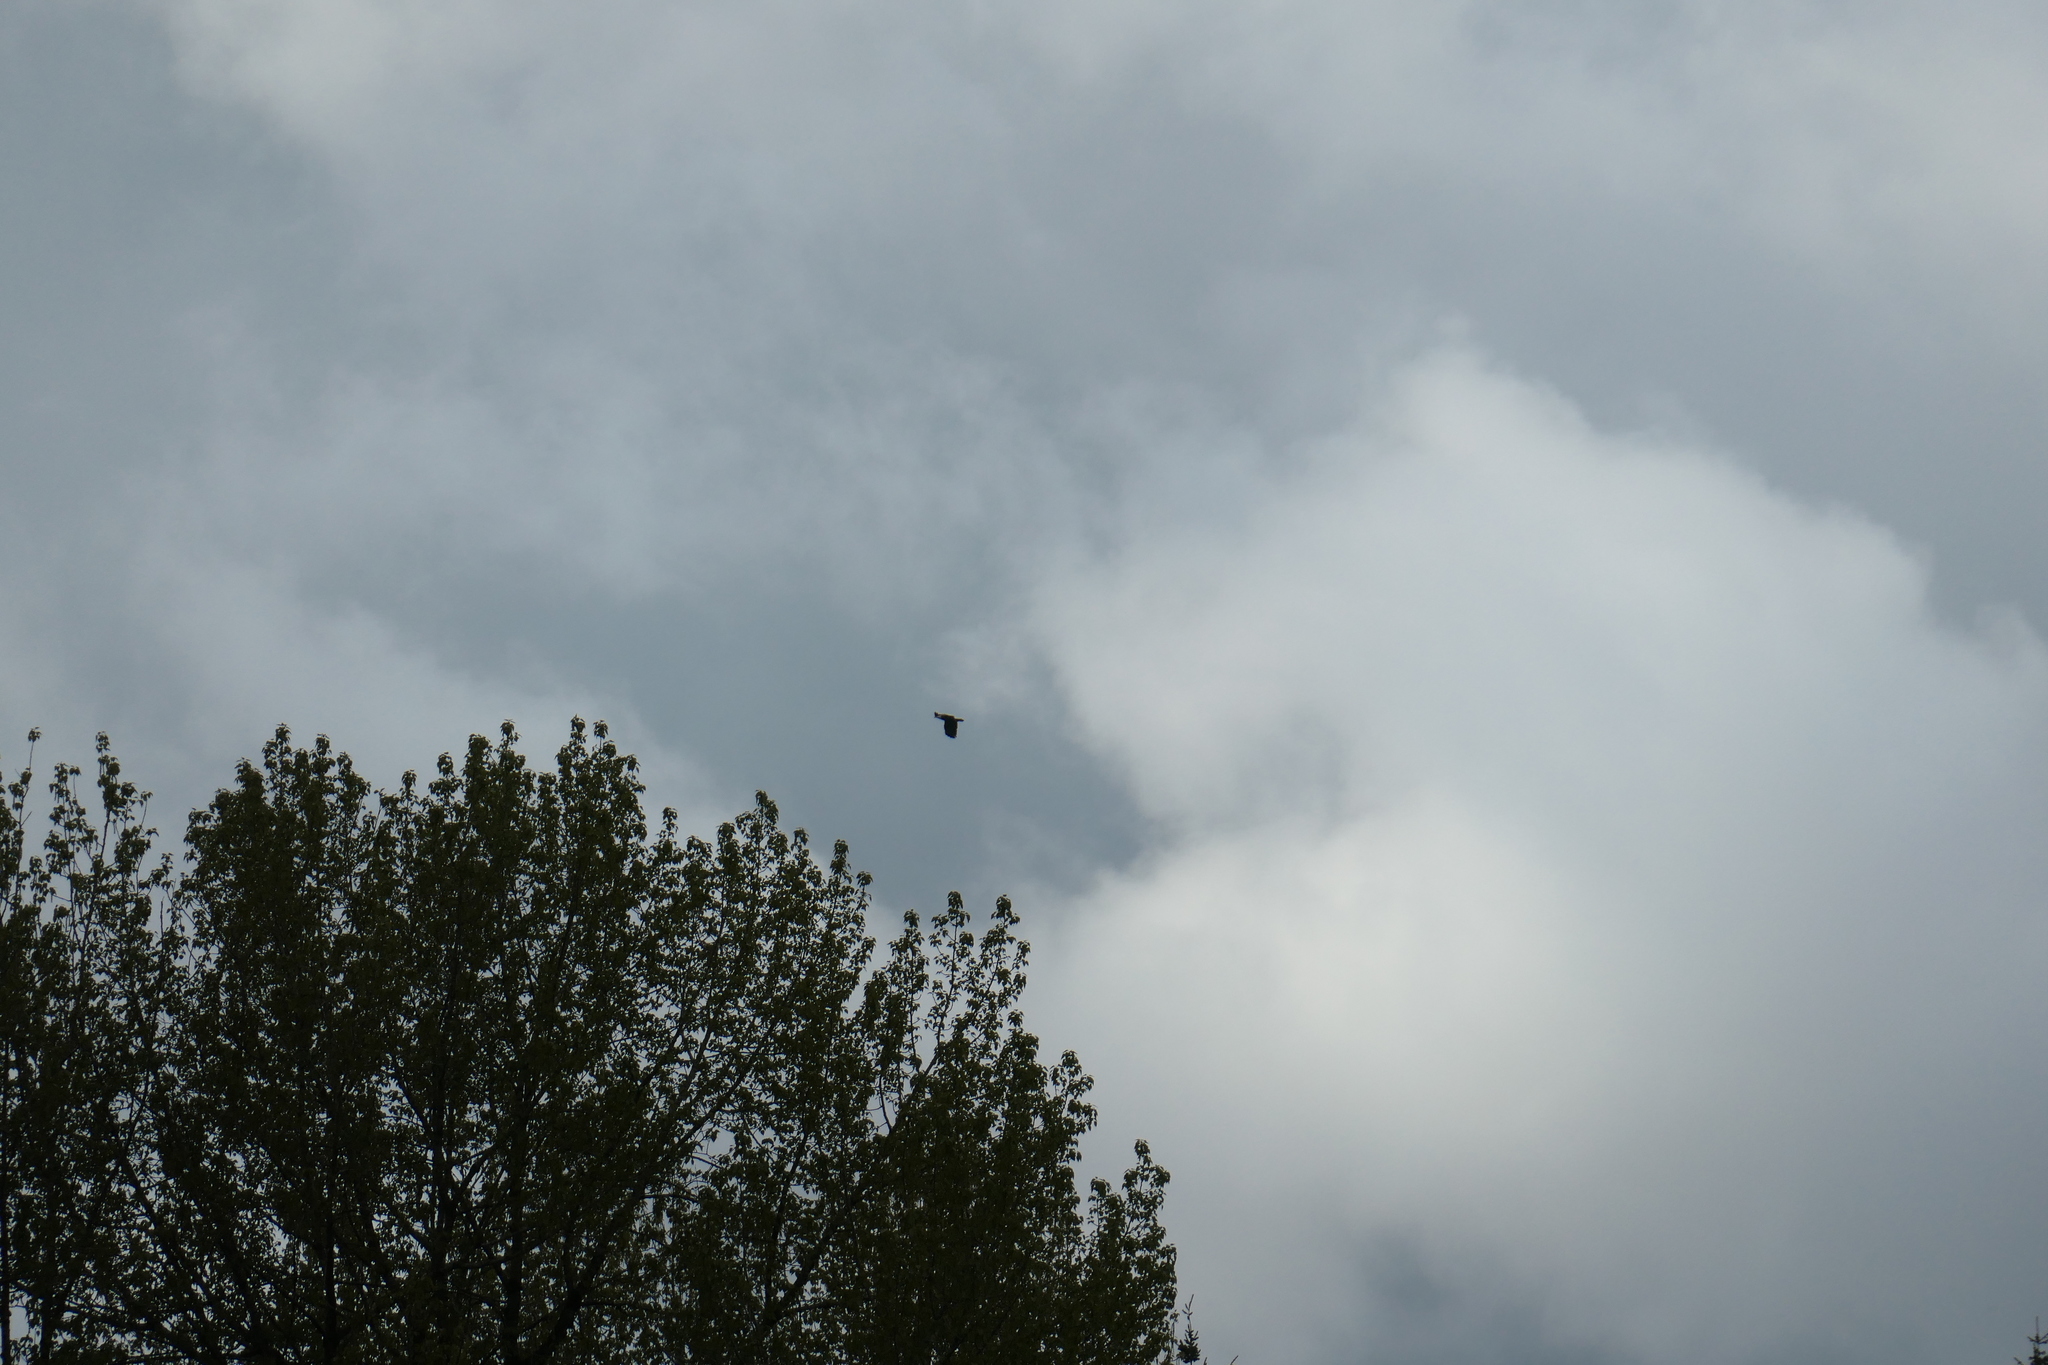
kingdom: Animalia
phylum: Chordata
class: Aves
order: Accipitriformes
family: Accipitridae
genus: Haliaeetus
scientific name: Haliaeetus leucocephalus
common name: Bald eagle
